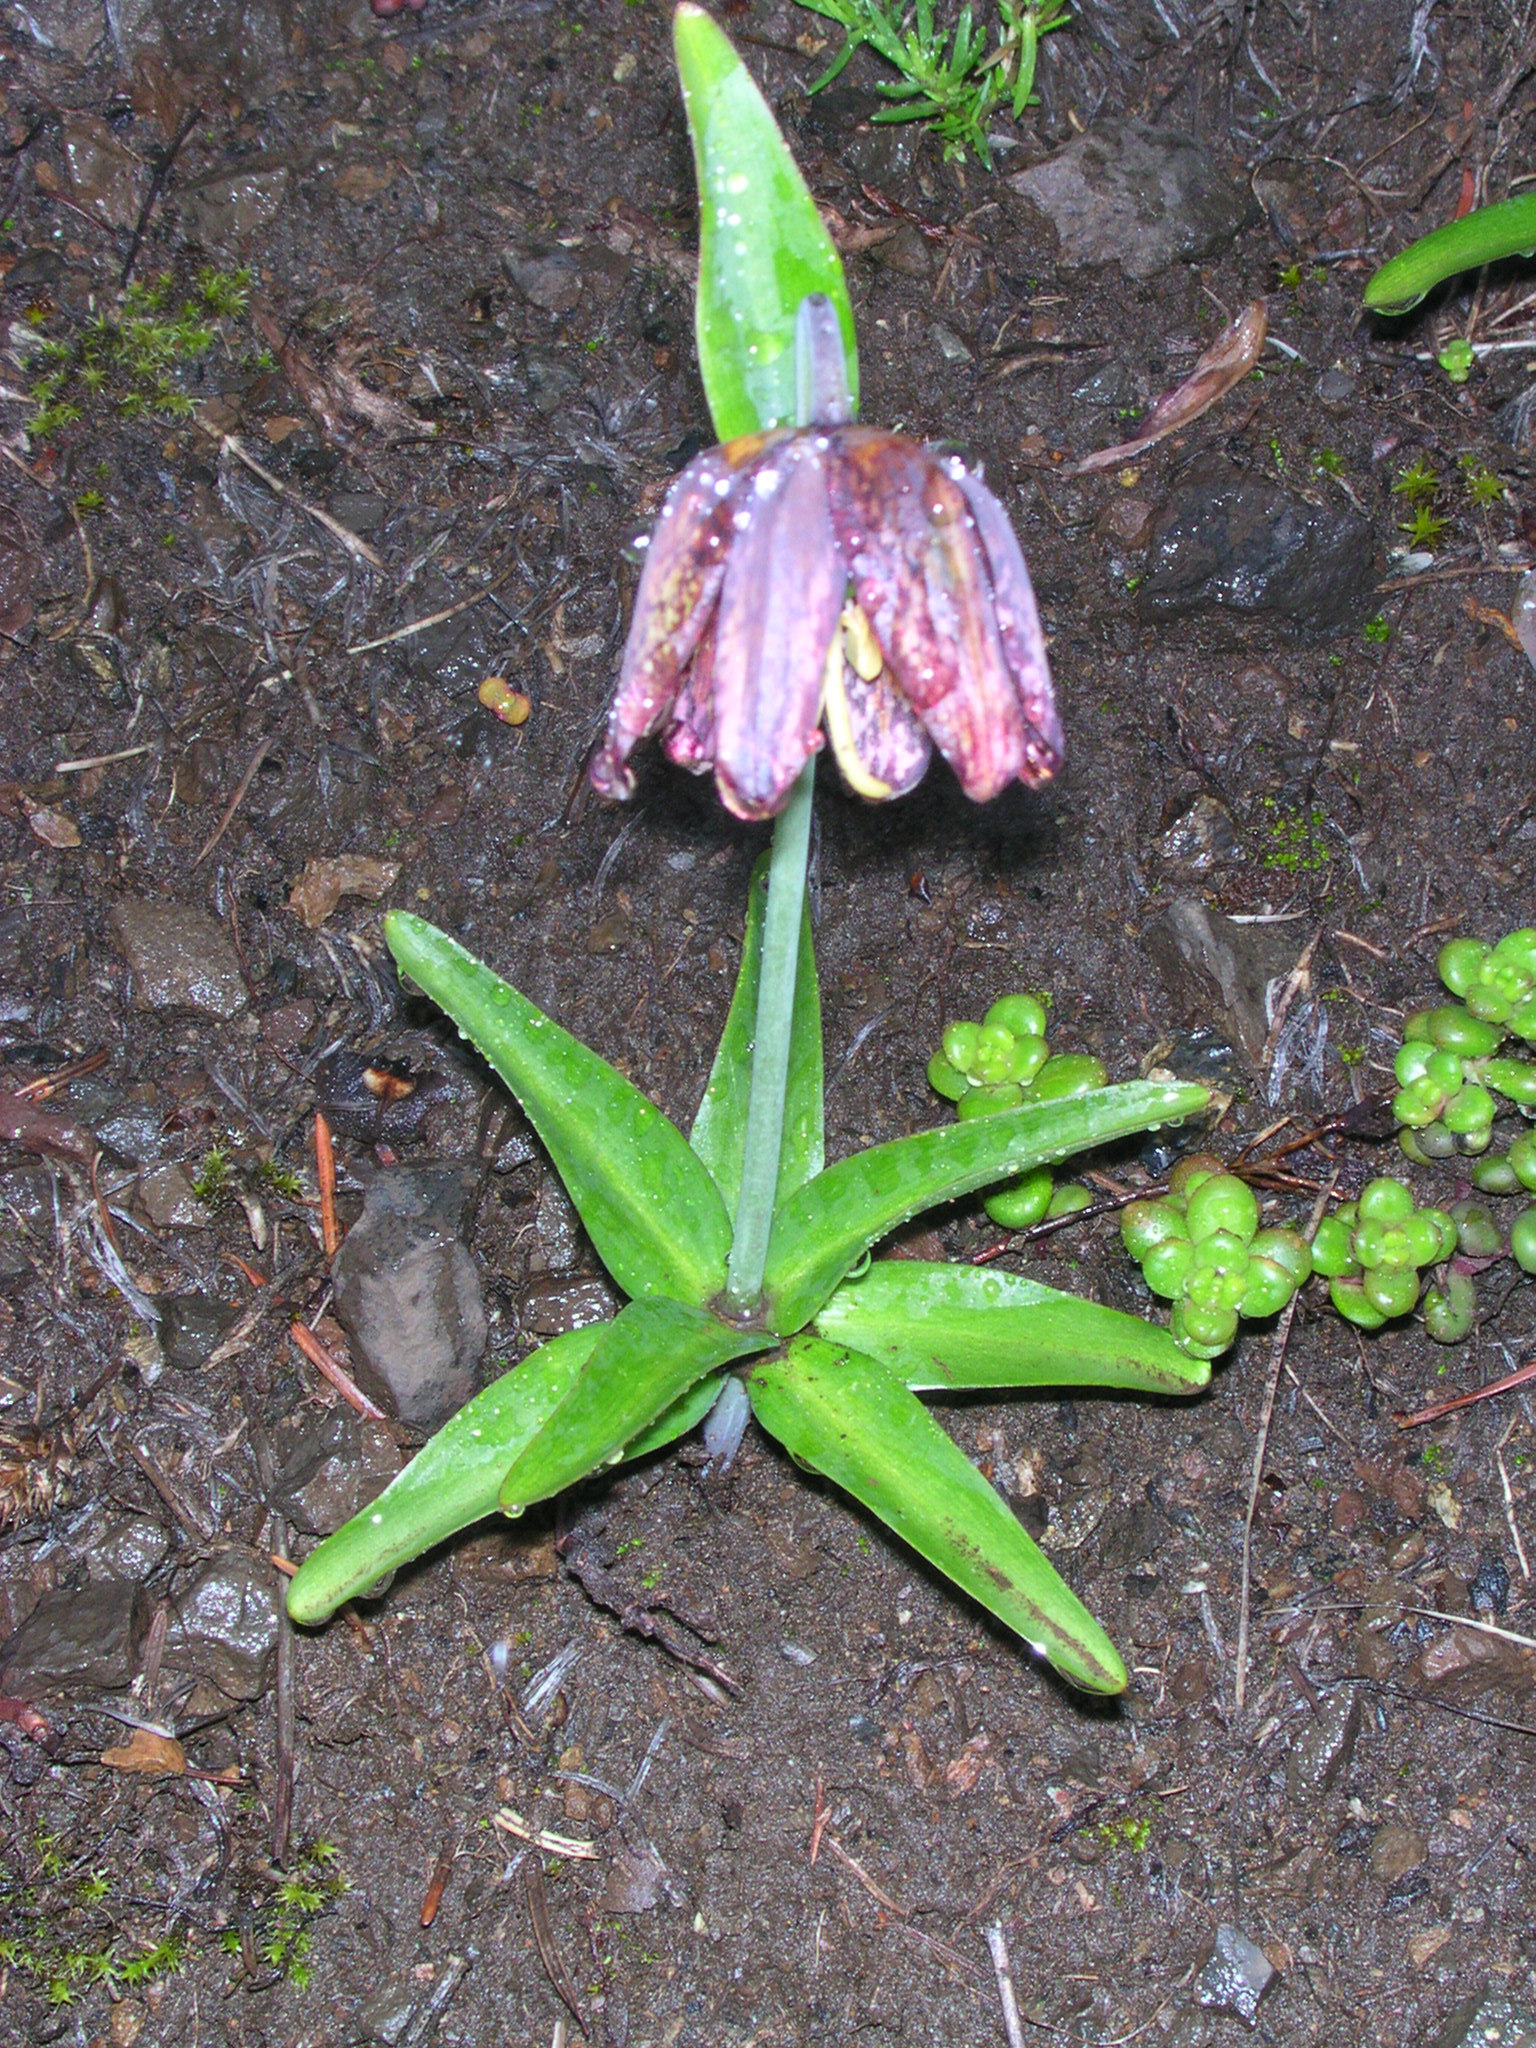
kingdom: Plantae
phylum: Tracheophyta
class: Liliopsida
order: Liliales
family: Liliaceae
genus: Fritillaria
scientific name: Fritillaria affinis
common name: Ojai fritillary
